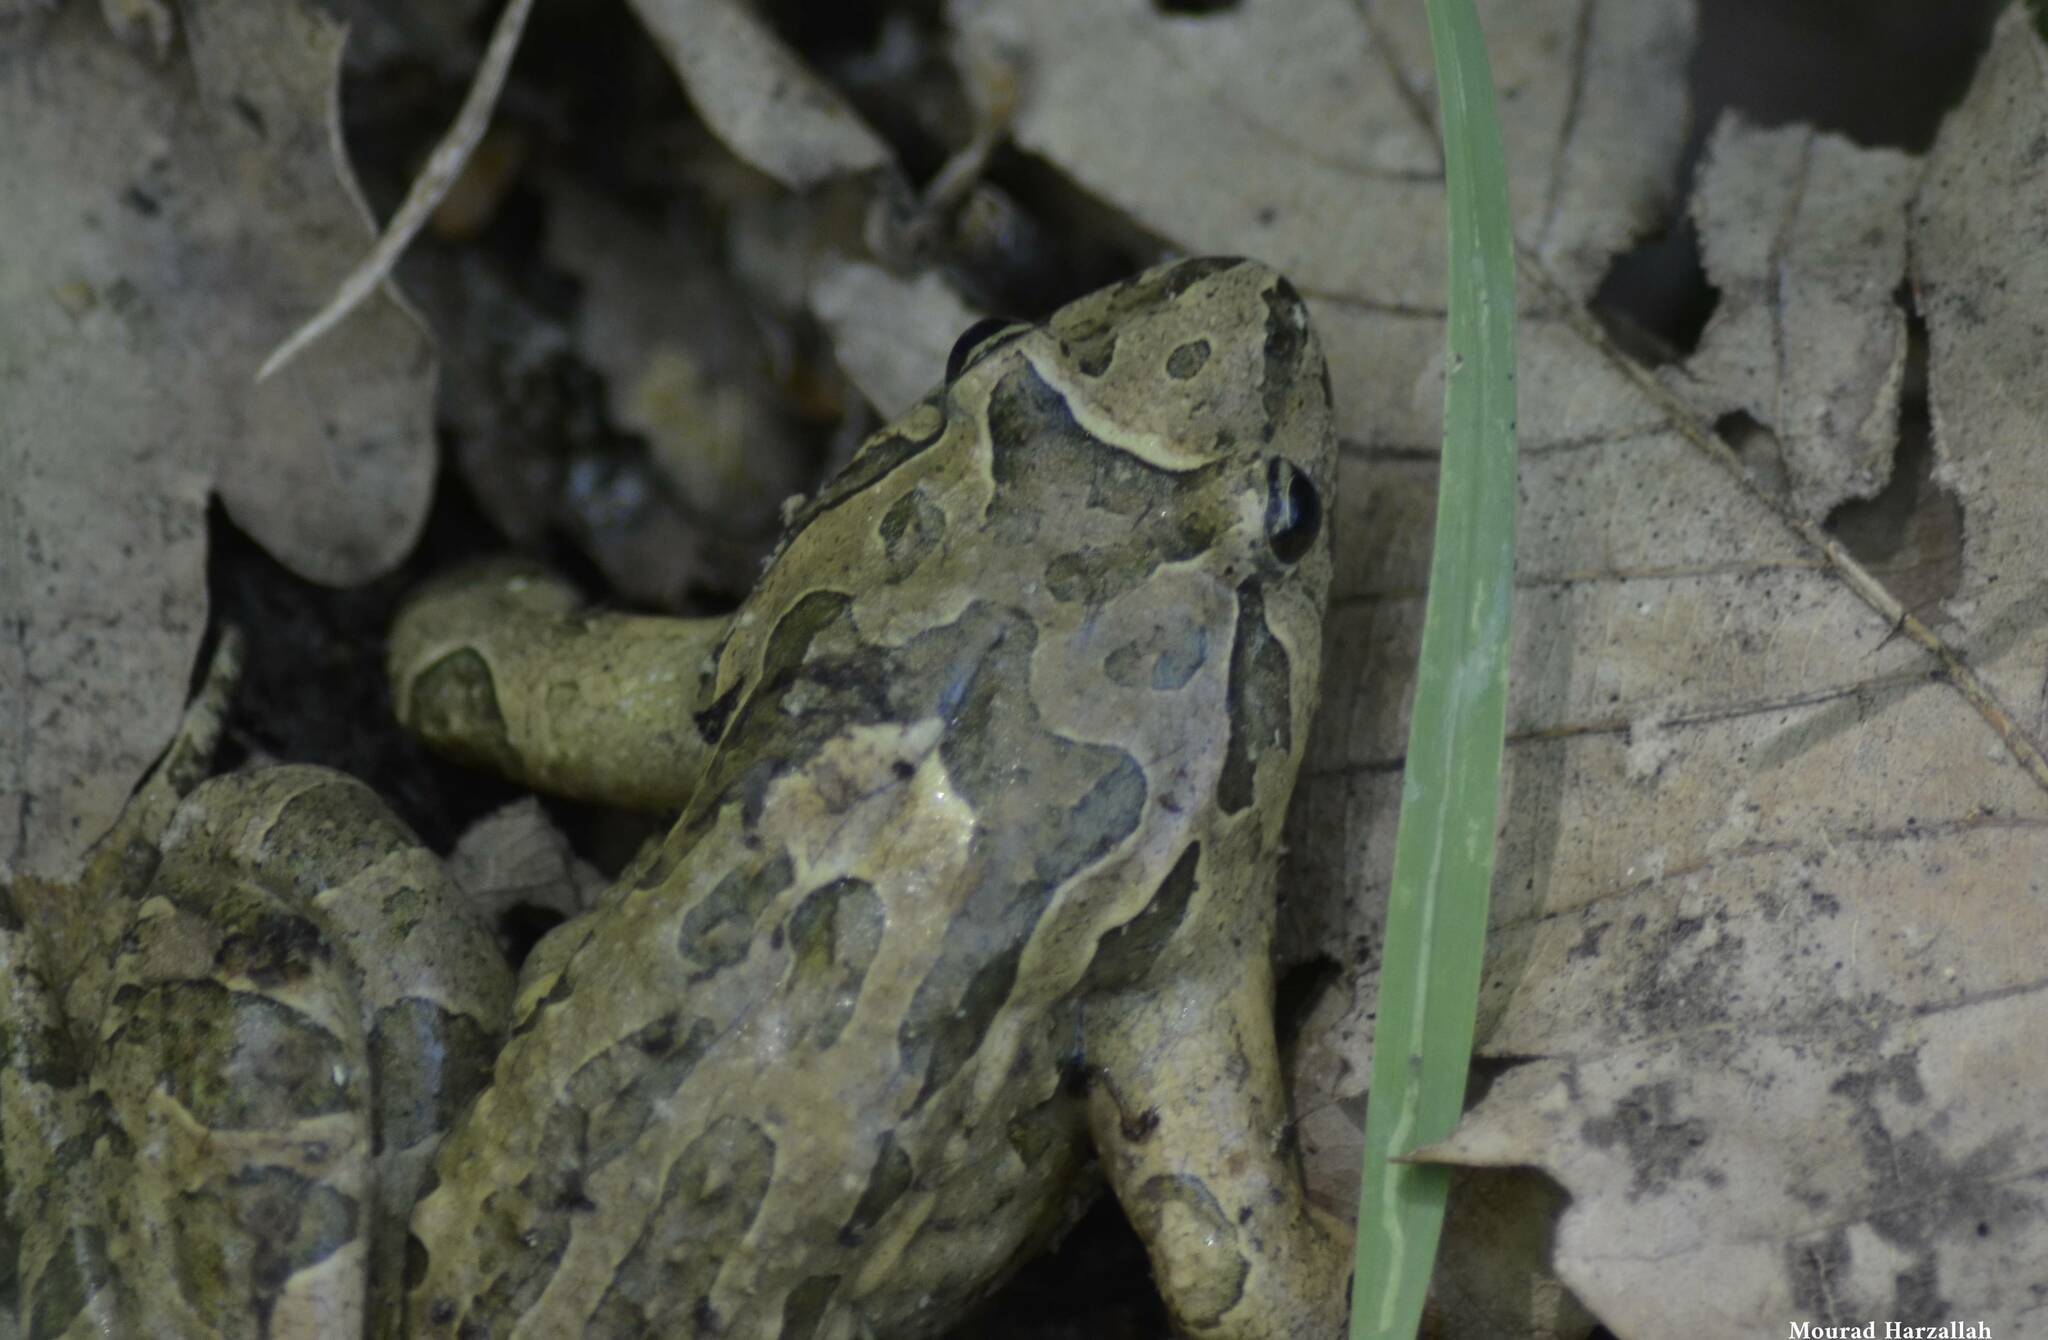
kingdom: Animalia
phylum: Chordata
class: Amphibia
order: Anura
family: Alytidae
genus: Discoglossus
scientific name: Discoglossus pictus
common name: Painted frog
